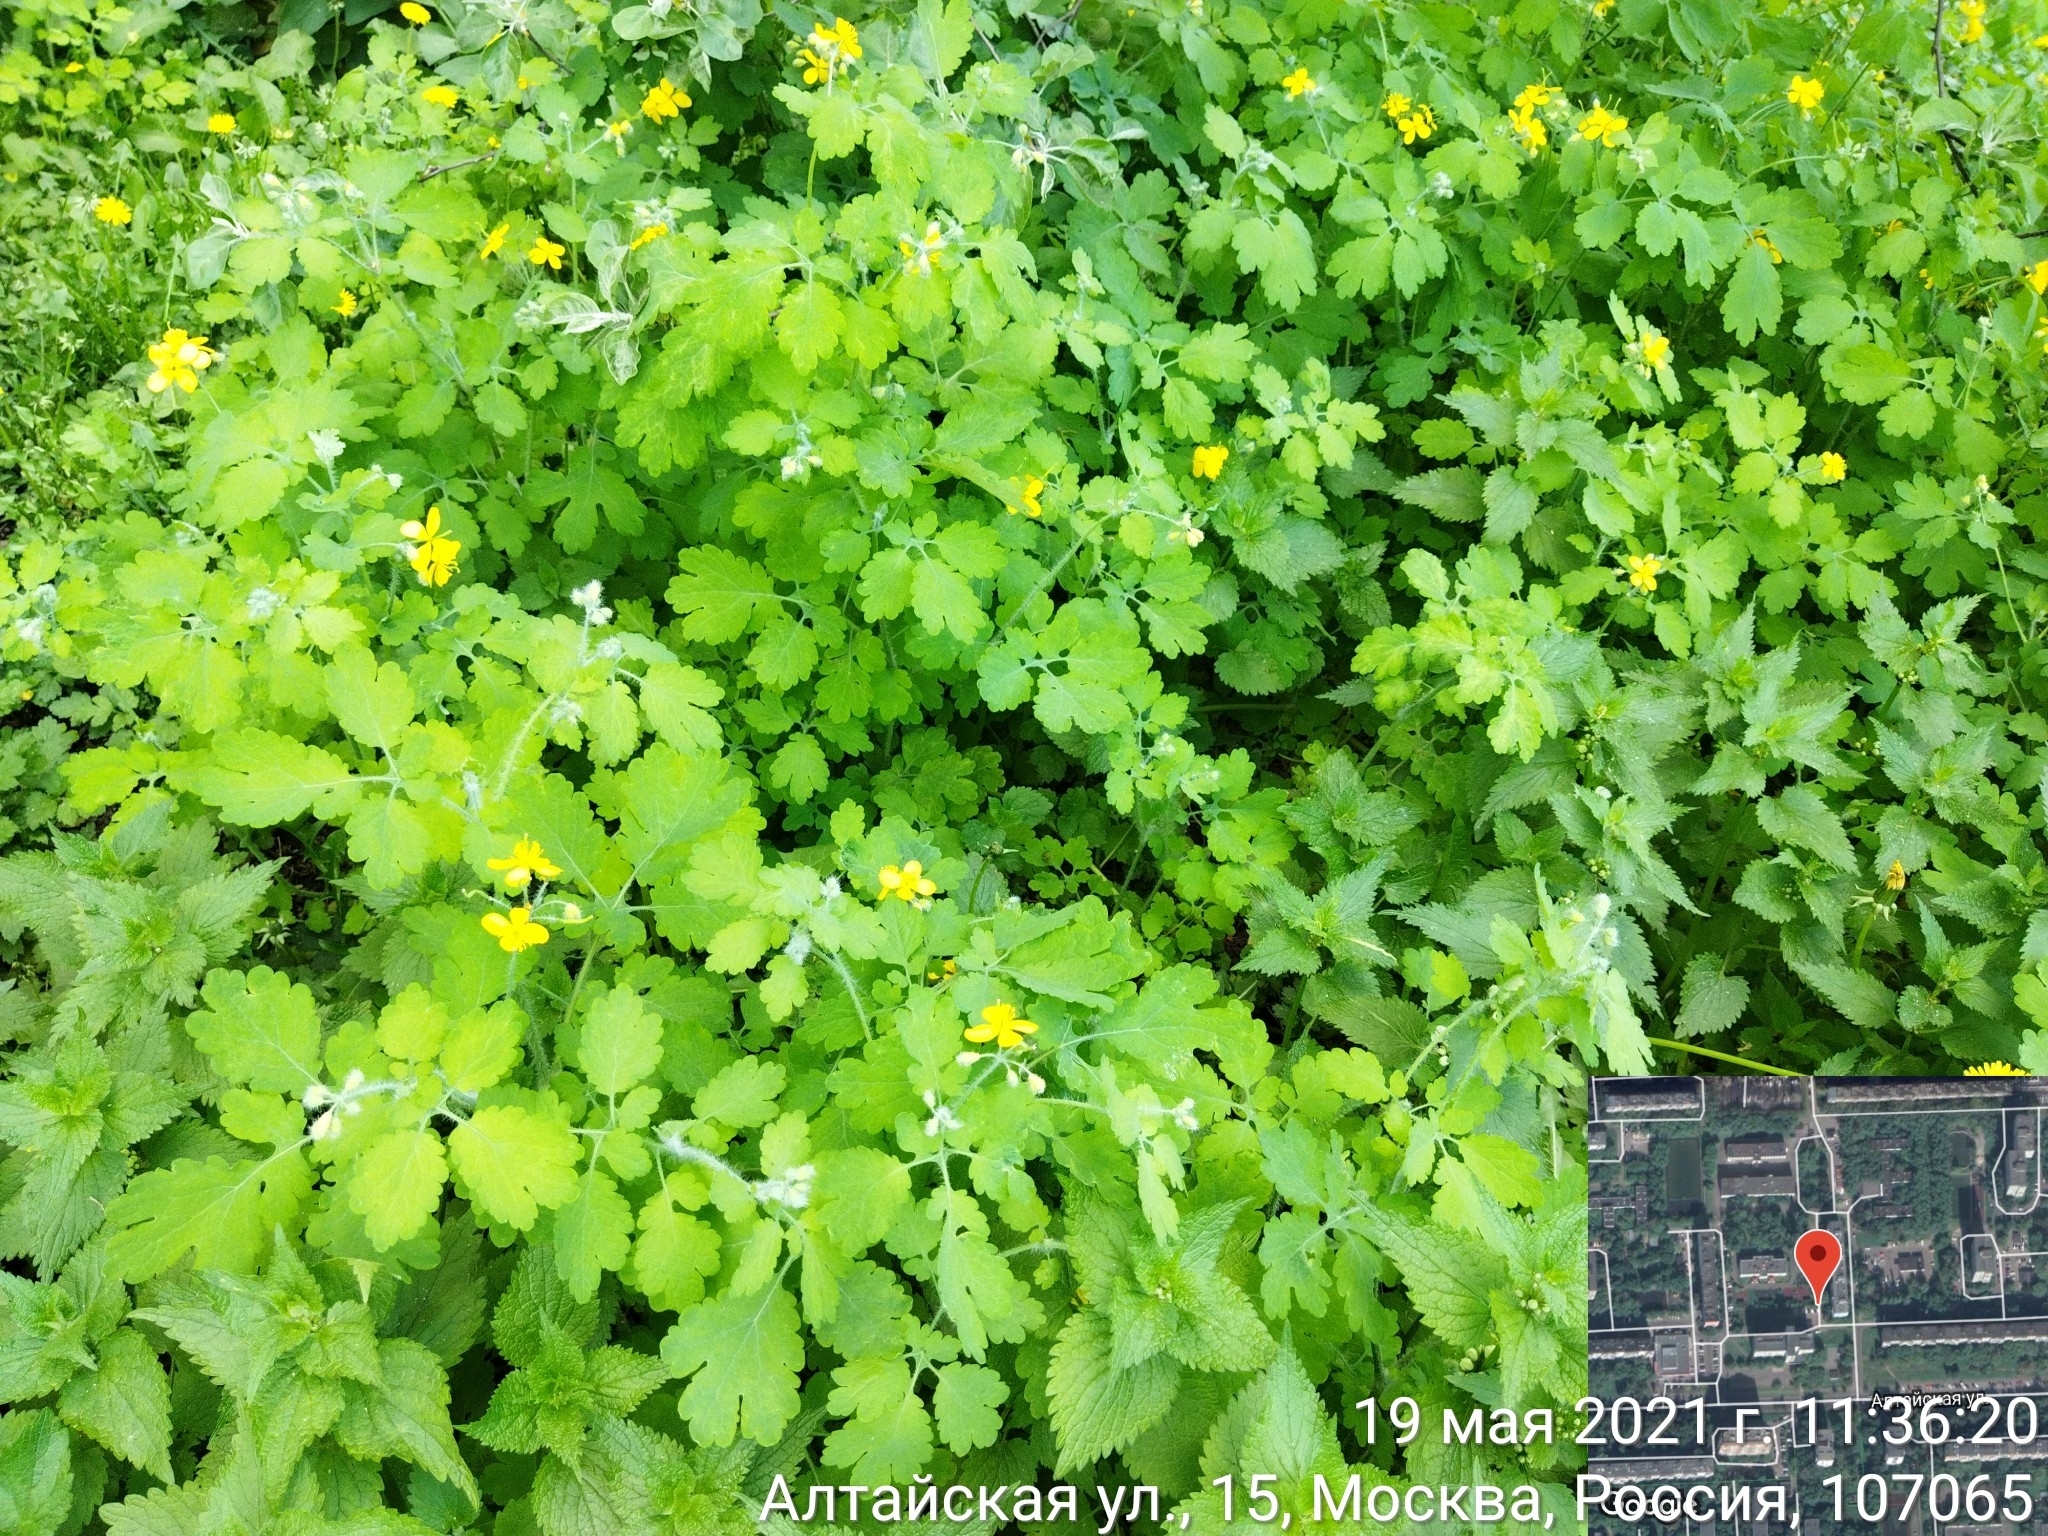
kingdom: Plantae
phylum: Tracheophyta
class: Magnoliopsida
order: Ranunculales
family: Papaveraceae
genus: Chelidonium
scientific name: Chelidonium majus
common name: Greater celandine
